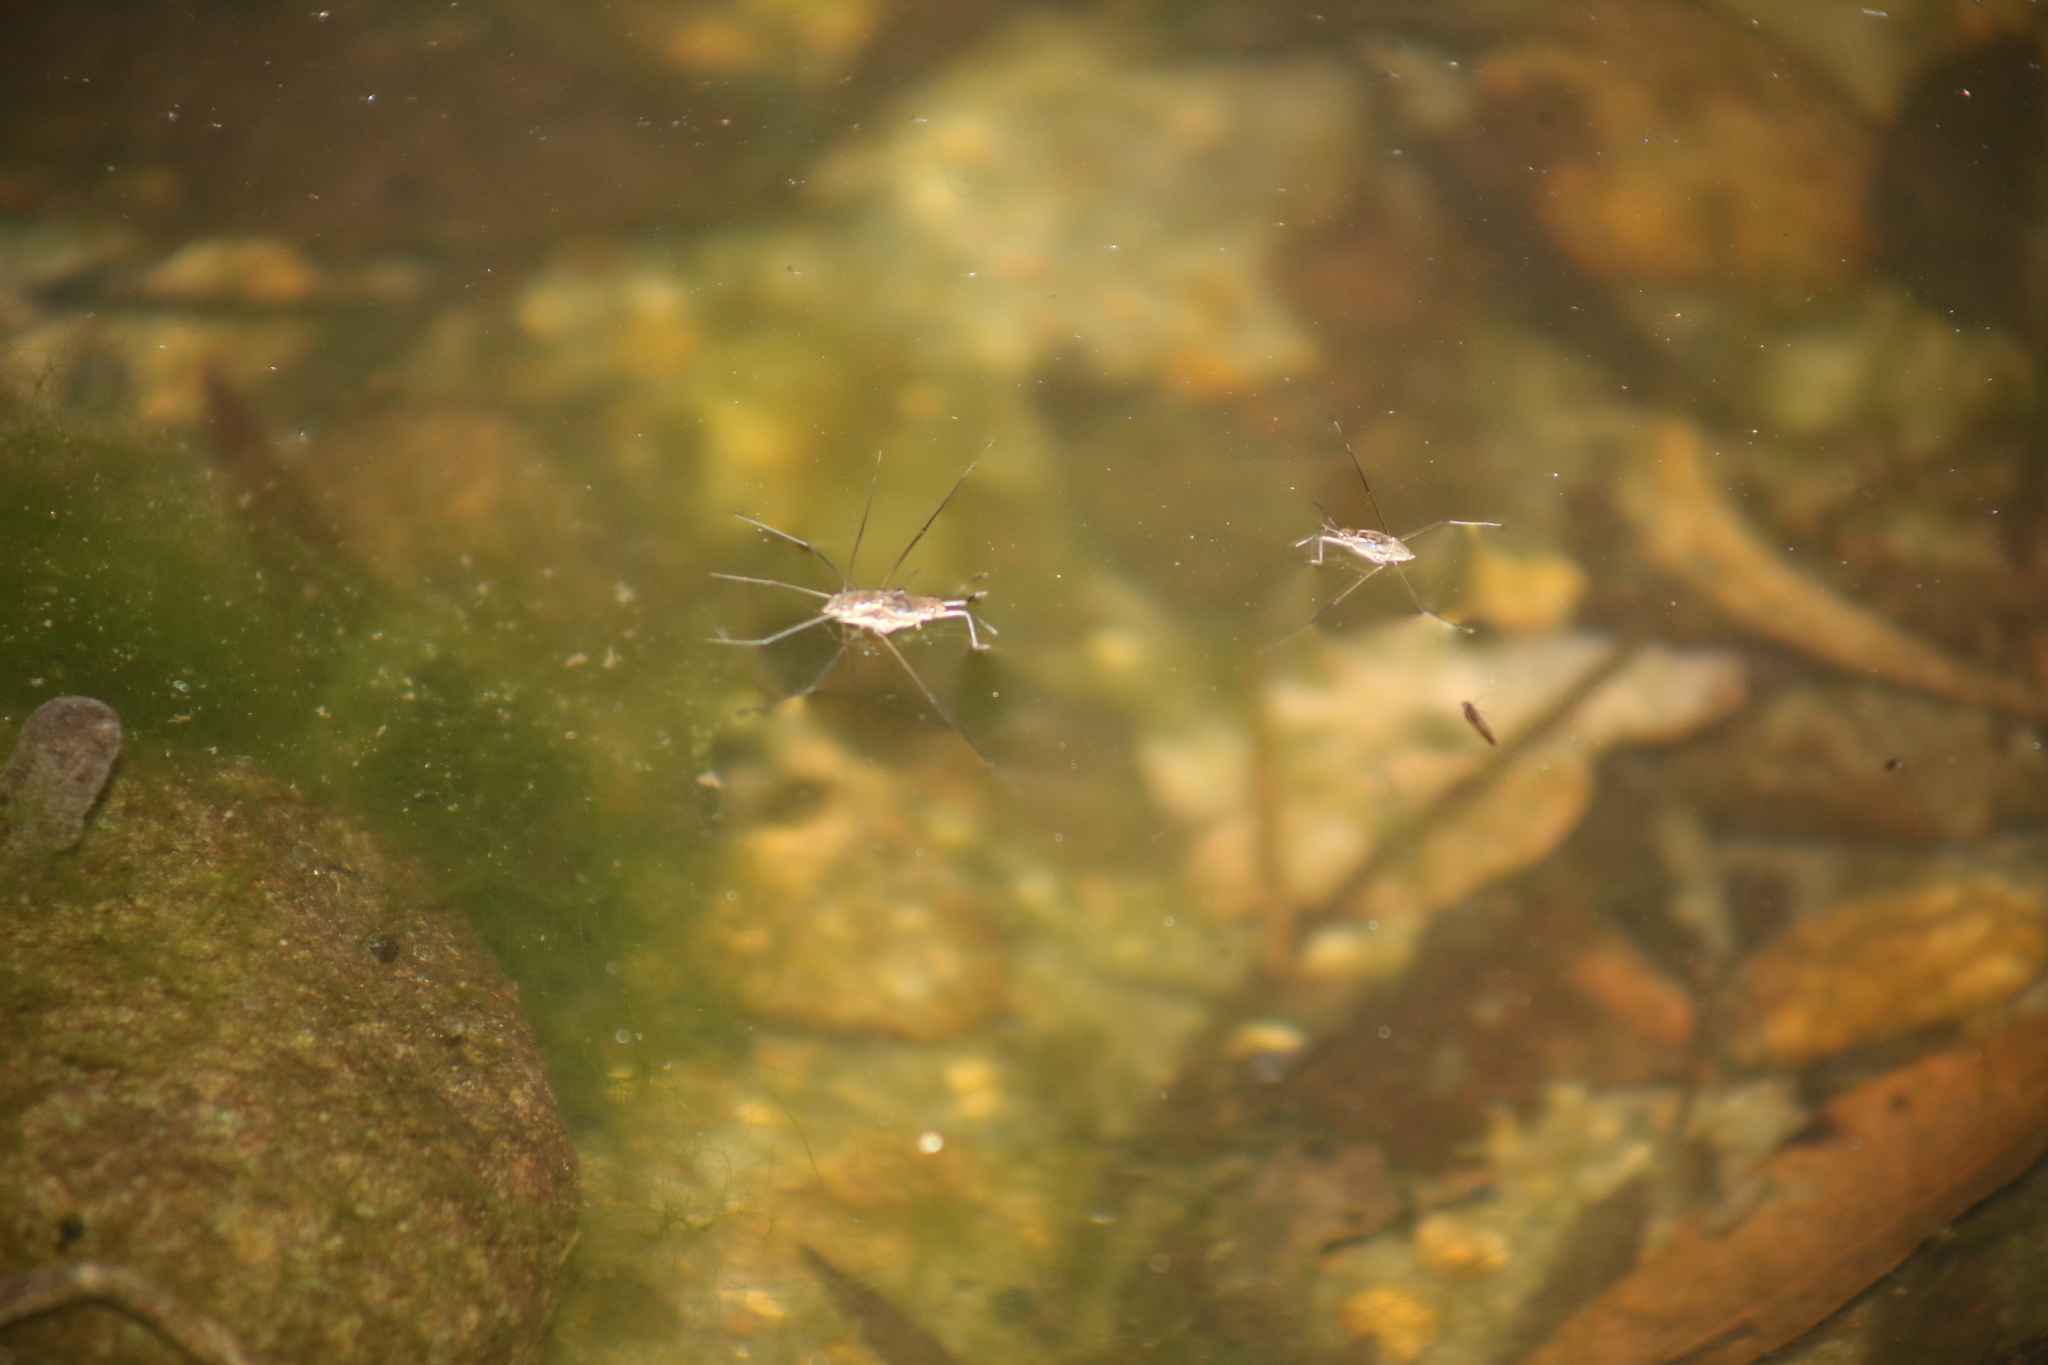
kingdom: Animalia
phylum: Arthropoda
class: Insecta
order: Hemiptera
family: Gerridae
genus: Tenagogerris
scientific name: Tenagogerris euphrosyne
